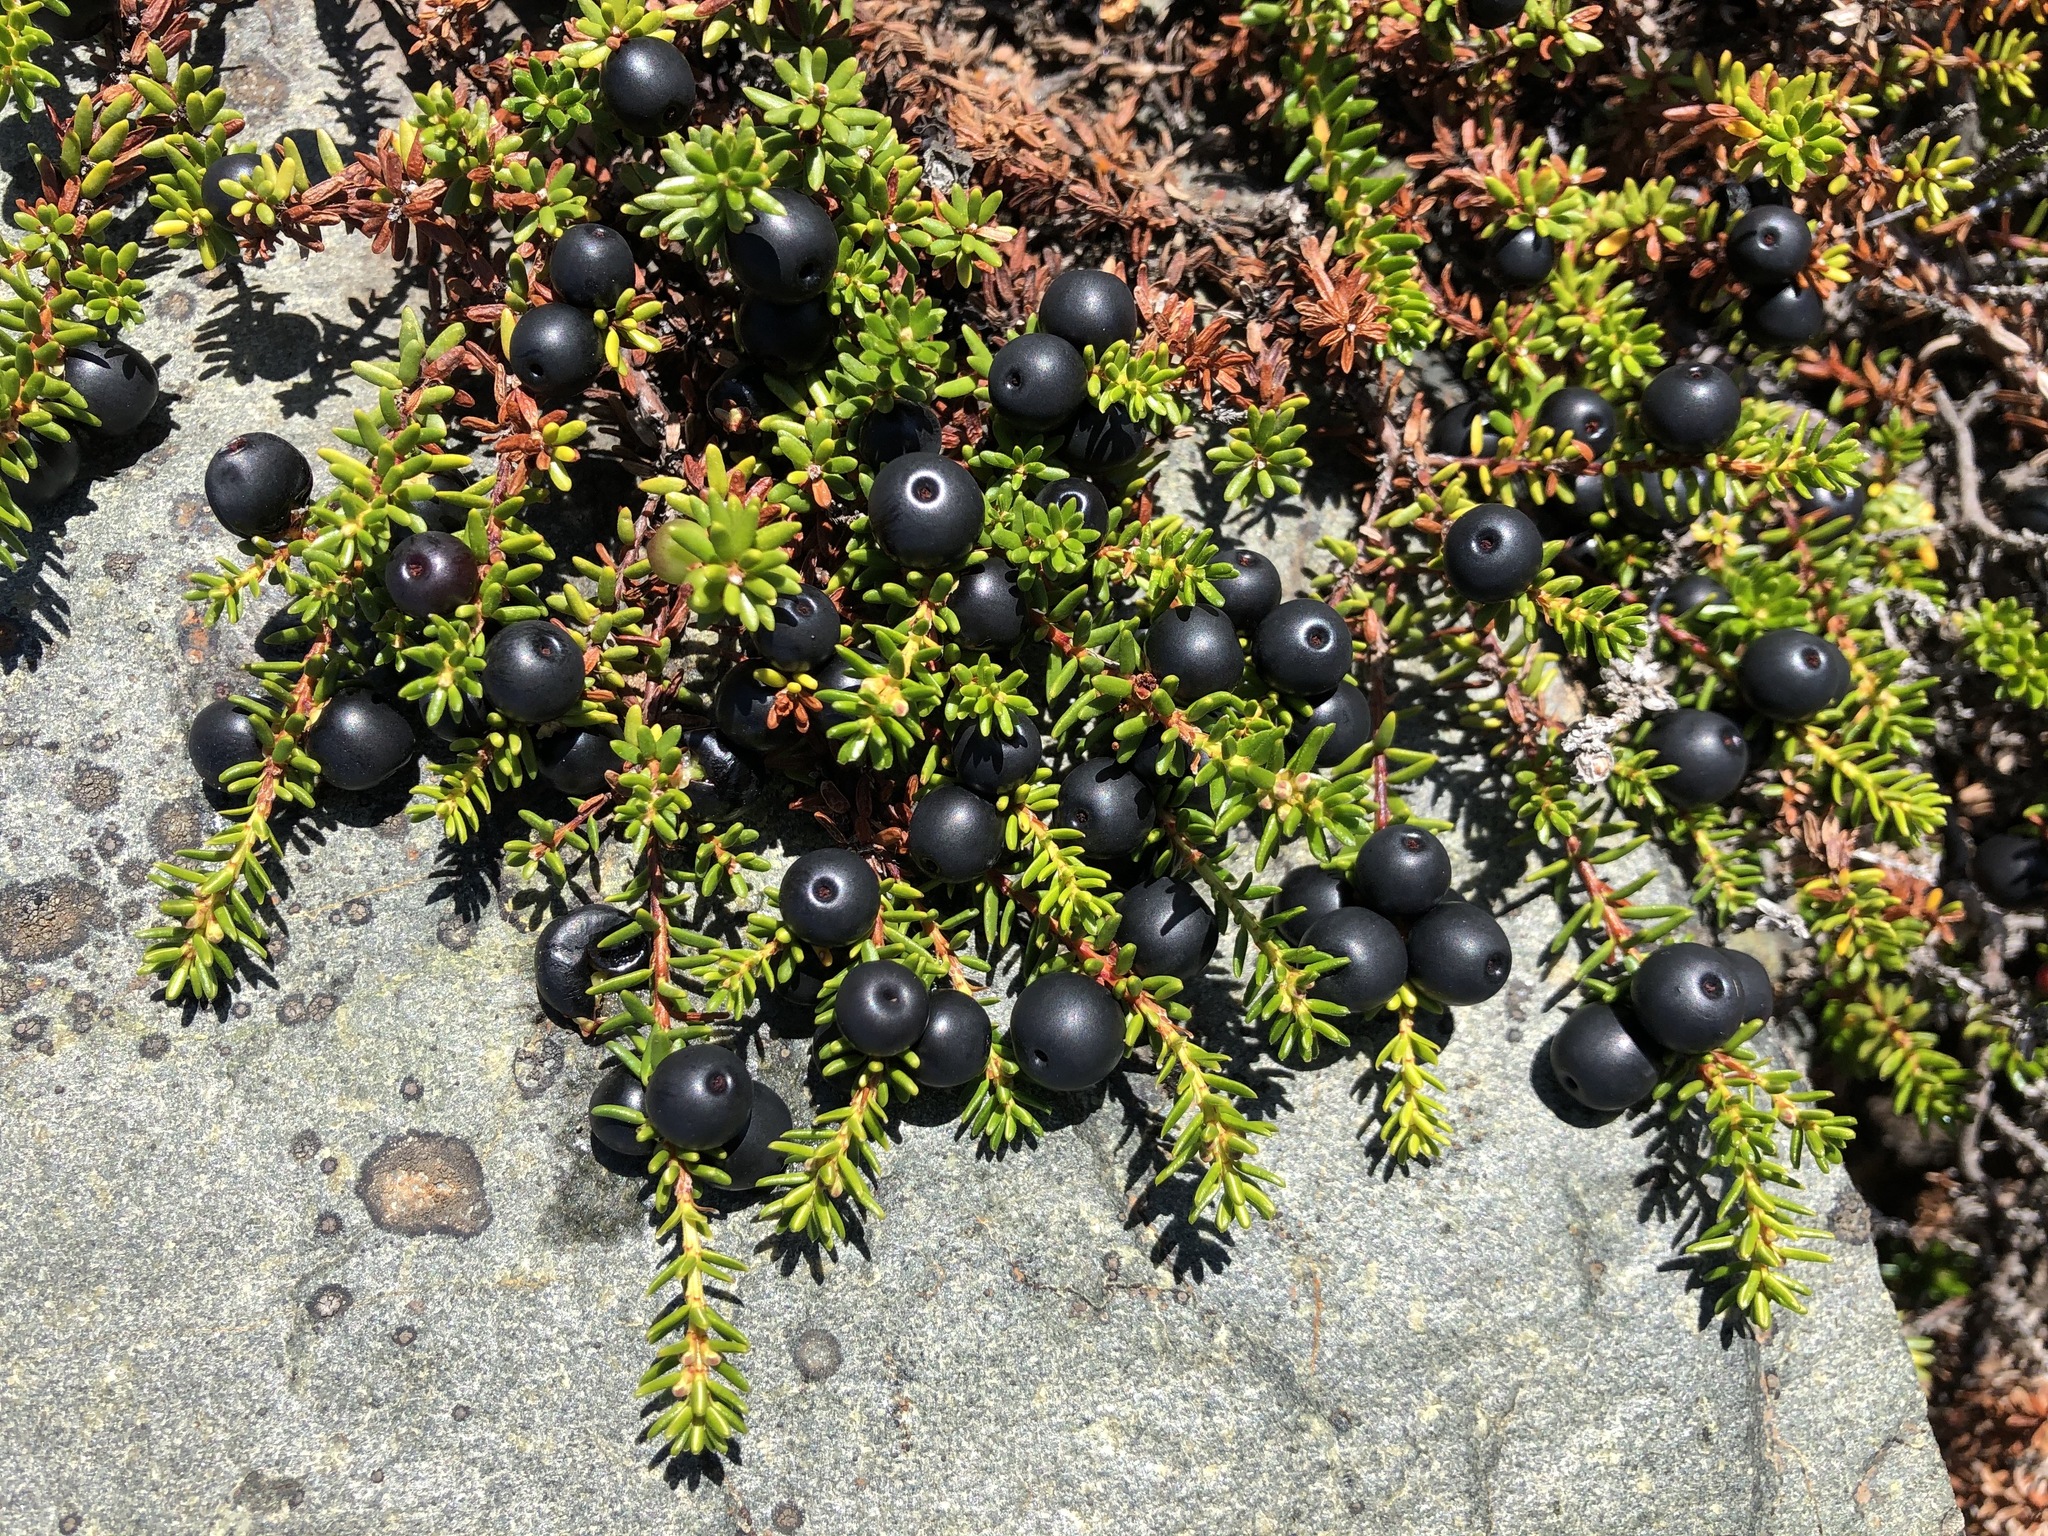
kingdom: Plantae
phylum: Tracheophyta
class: Magnoliopsida
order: Ericales
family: Ericaceae
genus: Empetrum
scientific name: Empetrum nigrum
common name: Black crowberry
